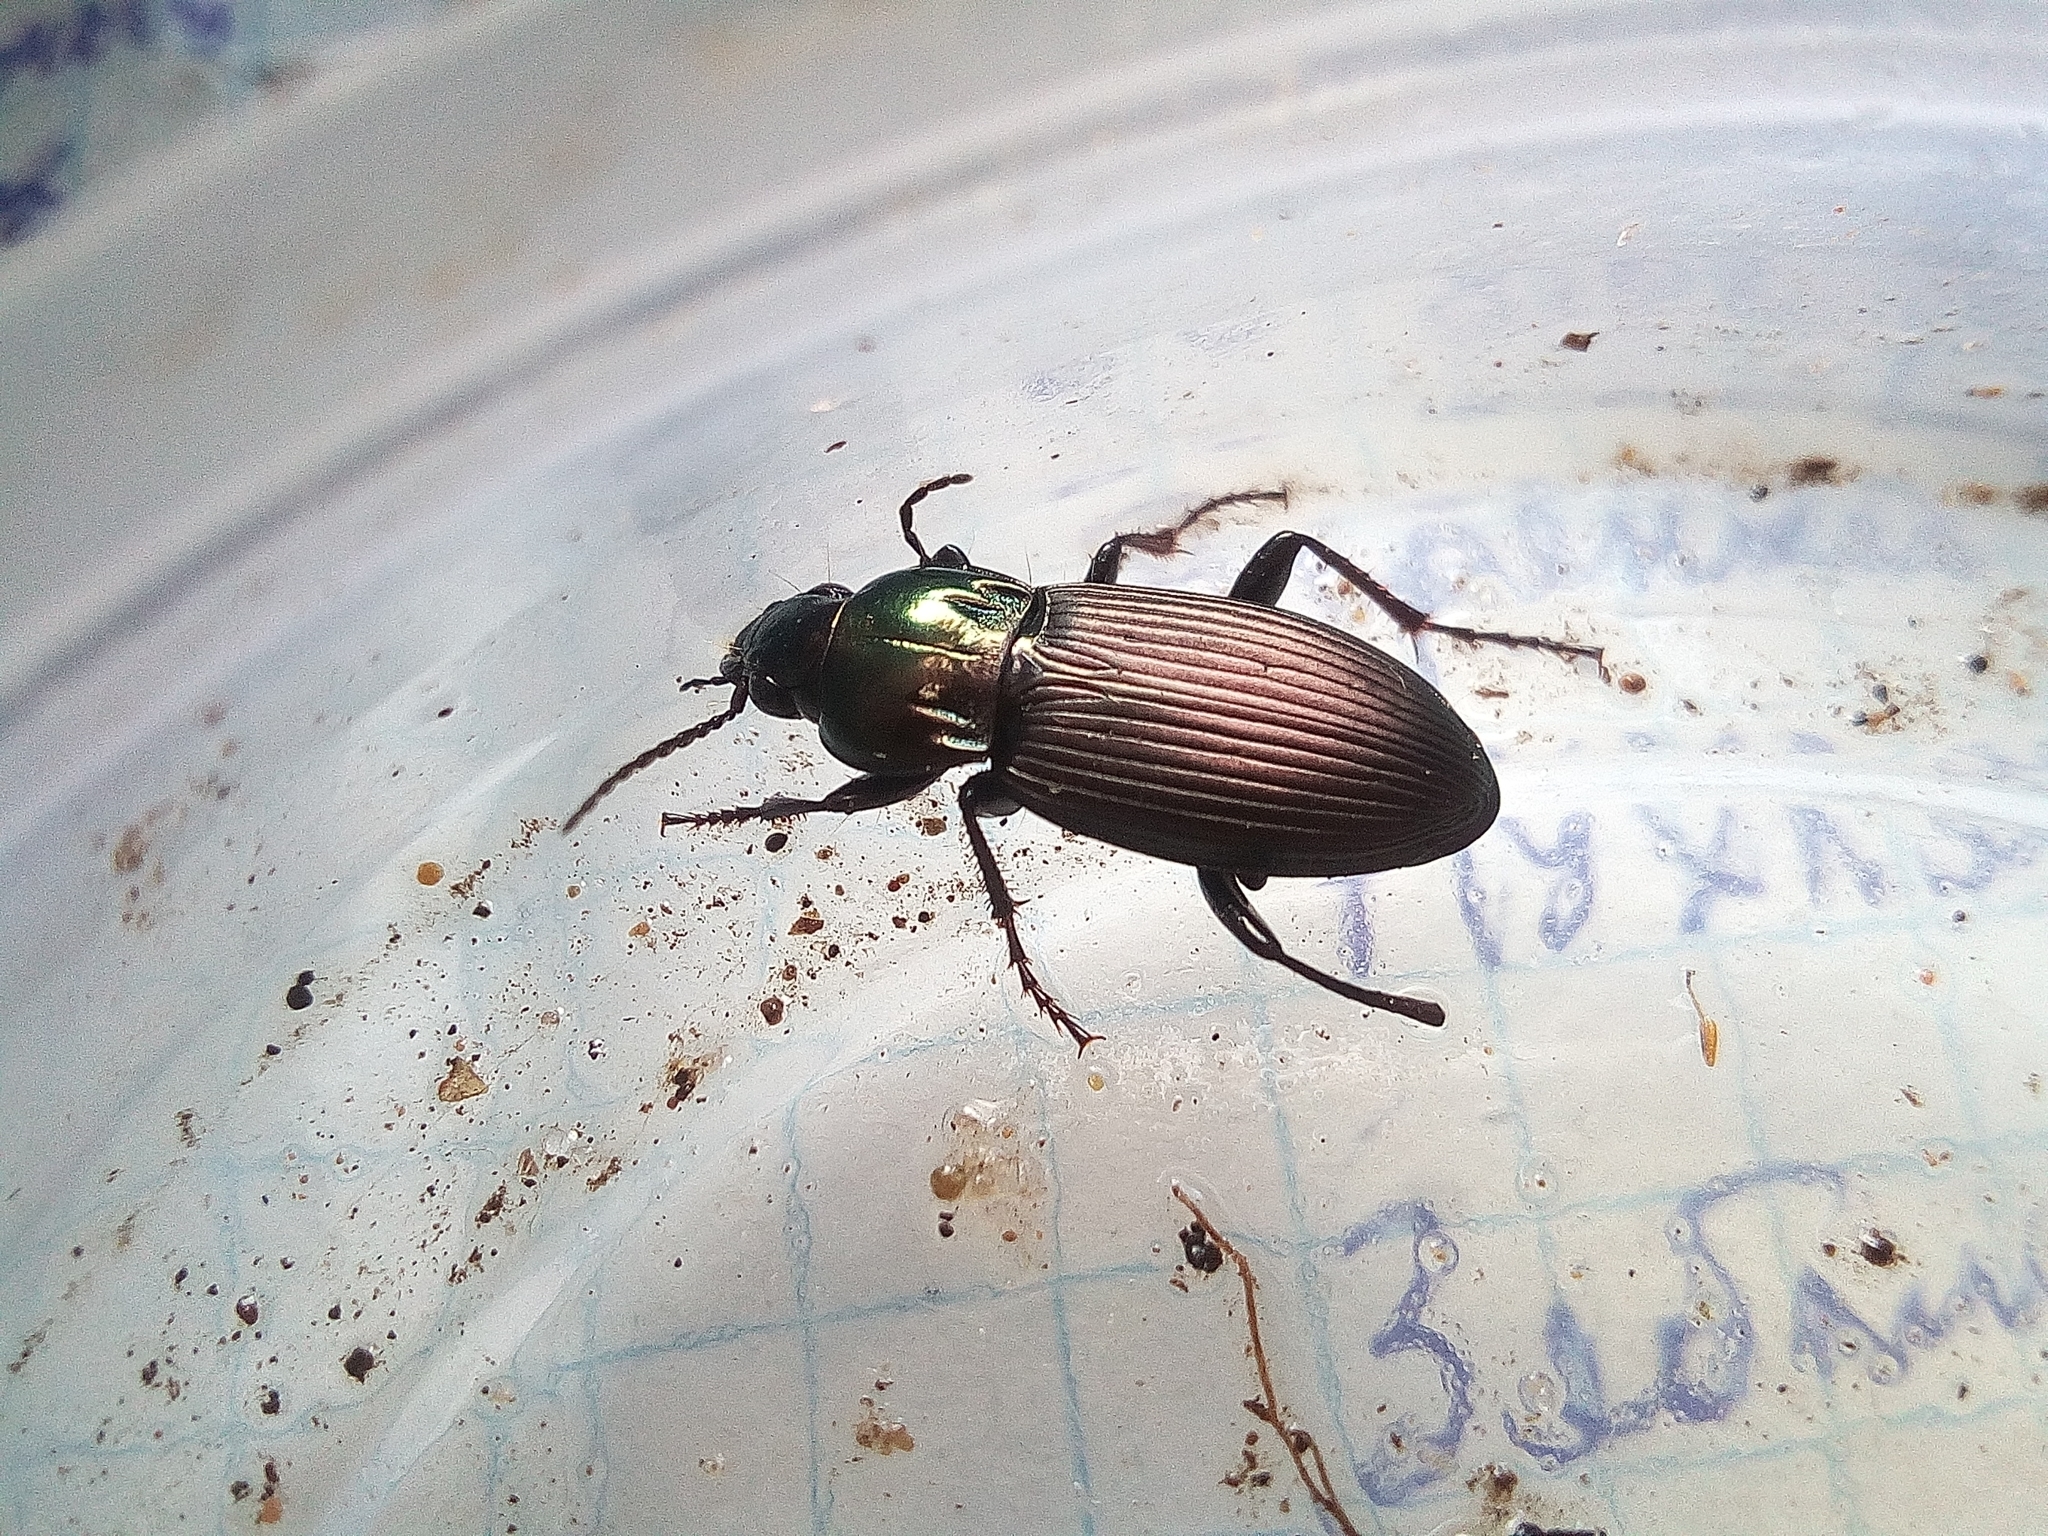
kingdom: Animalia
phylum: Arthropoda
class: Insecta
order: Coleoptera
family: Carabidae
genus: Poecilus
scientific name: Poecilus lepidus
